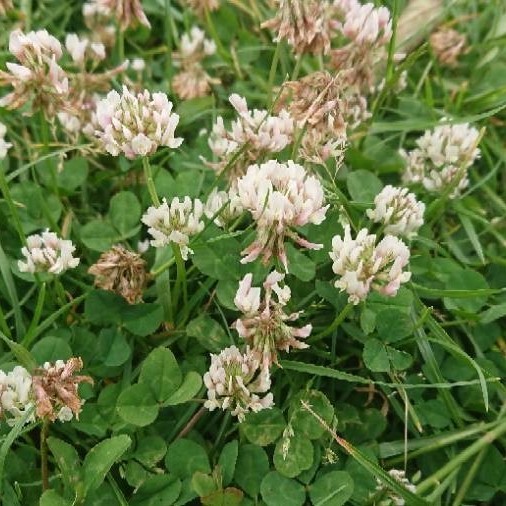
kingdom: Plantae
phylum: Tracheophyta
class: Magnoliopsida
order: Fabales
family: Fabaceae
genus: Trifolium
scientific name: Trifolium repens
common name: White clover
